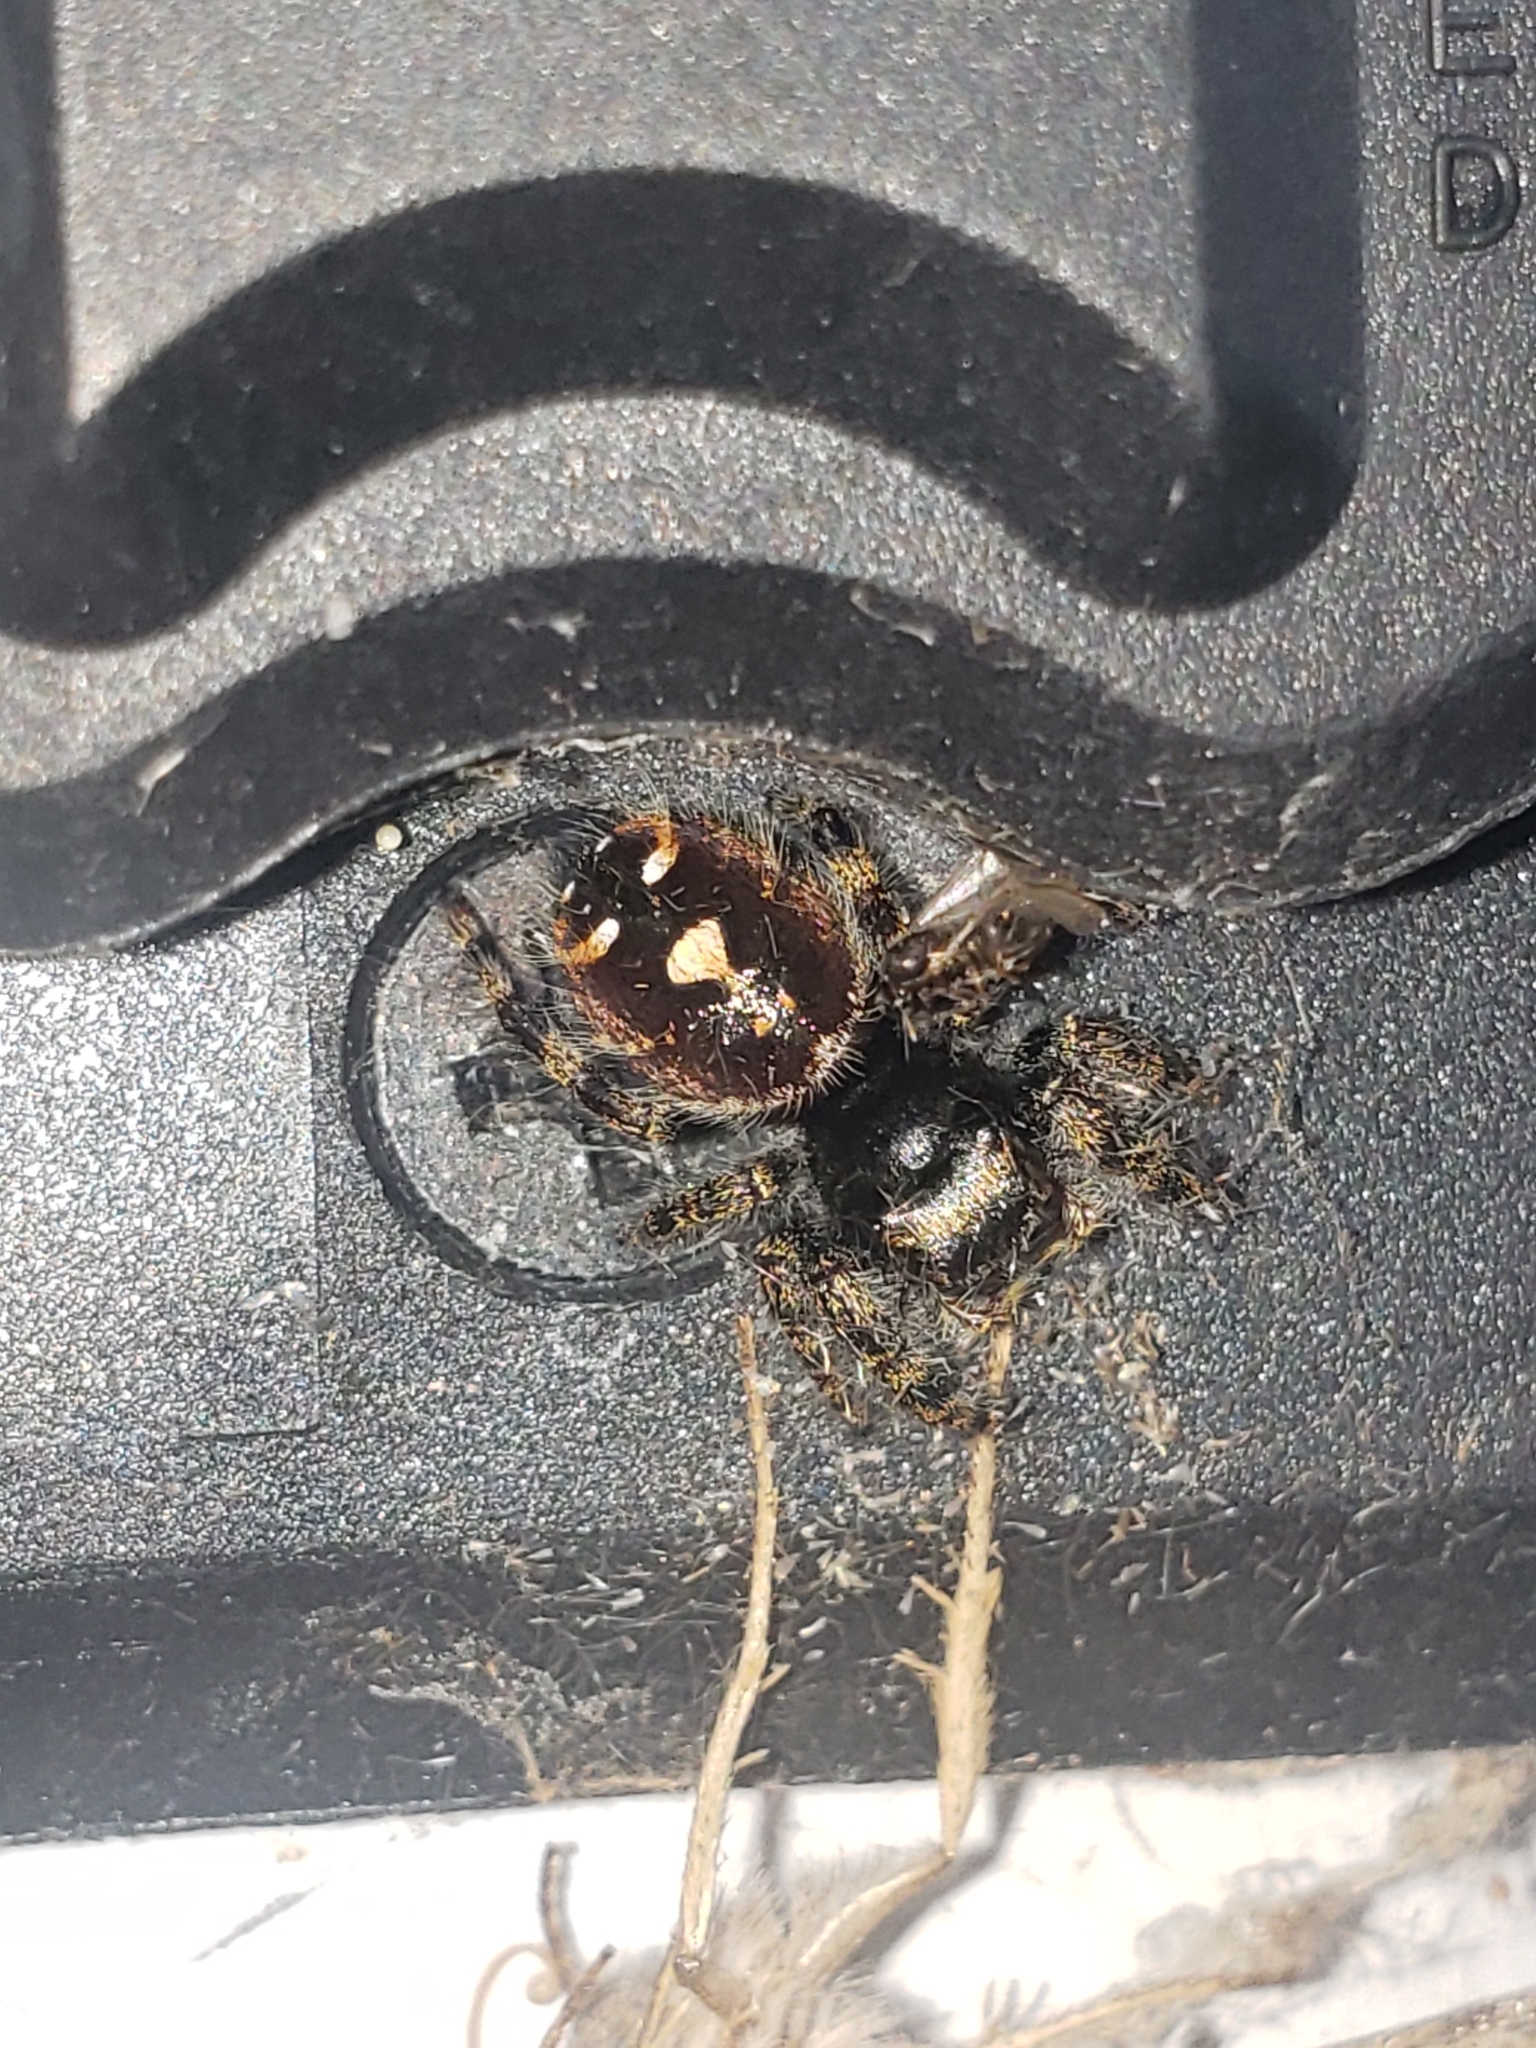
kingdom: Animalia
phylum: Arthropoda
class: Arachnida
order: Araneae
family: Salticidae
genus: Phidippus
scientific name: Phidippus audax
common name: Bold jumper
